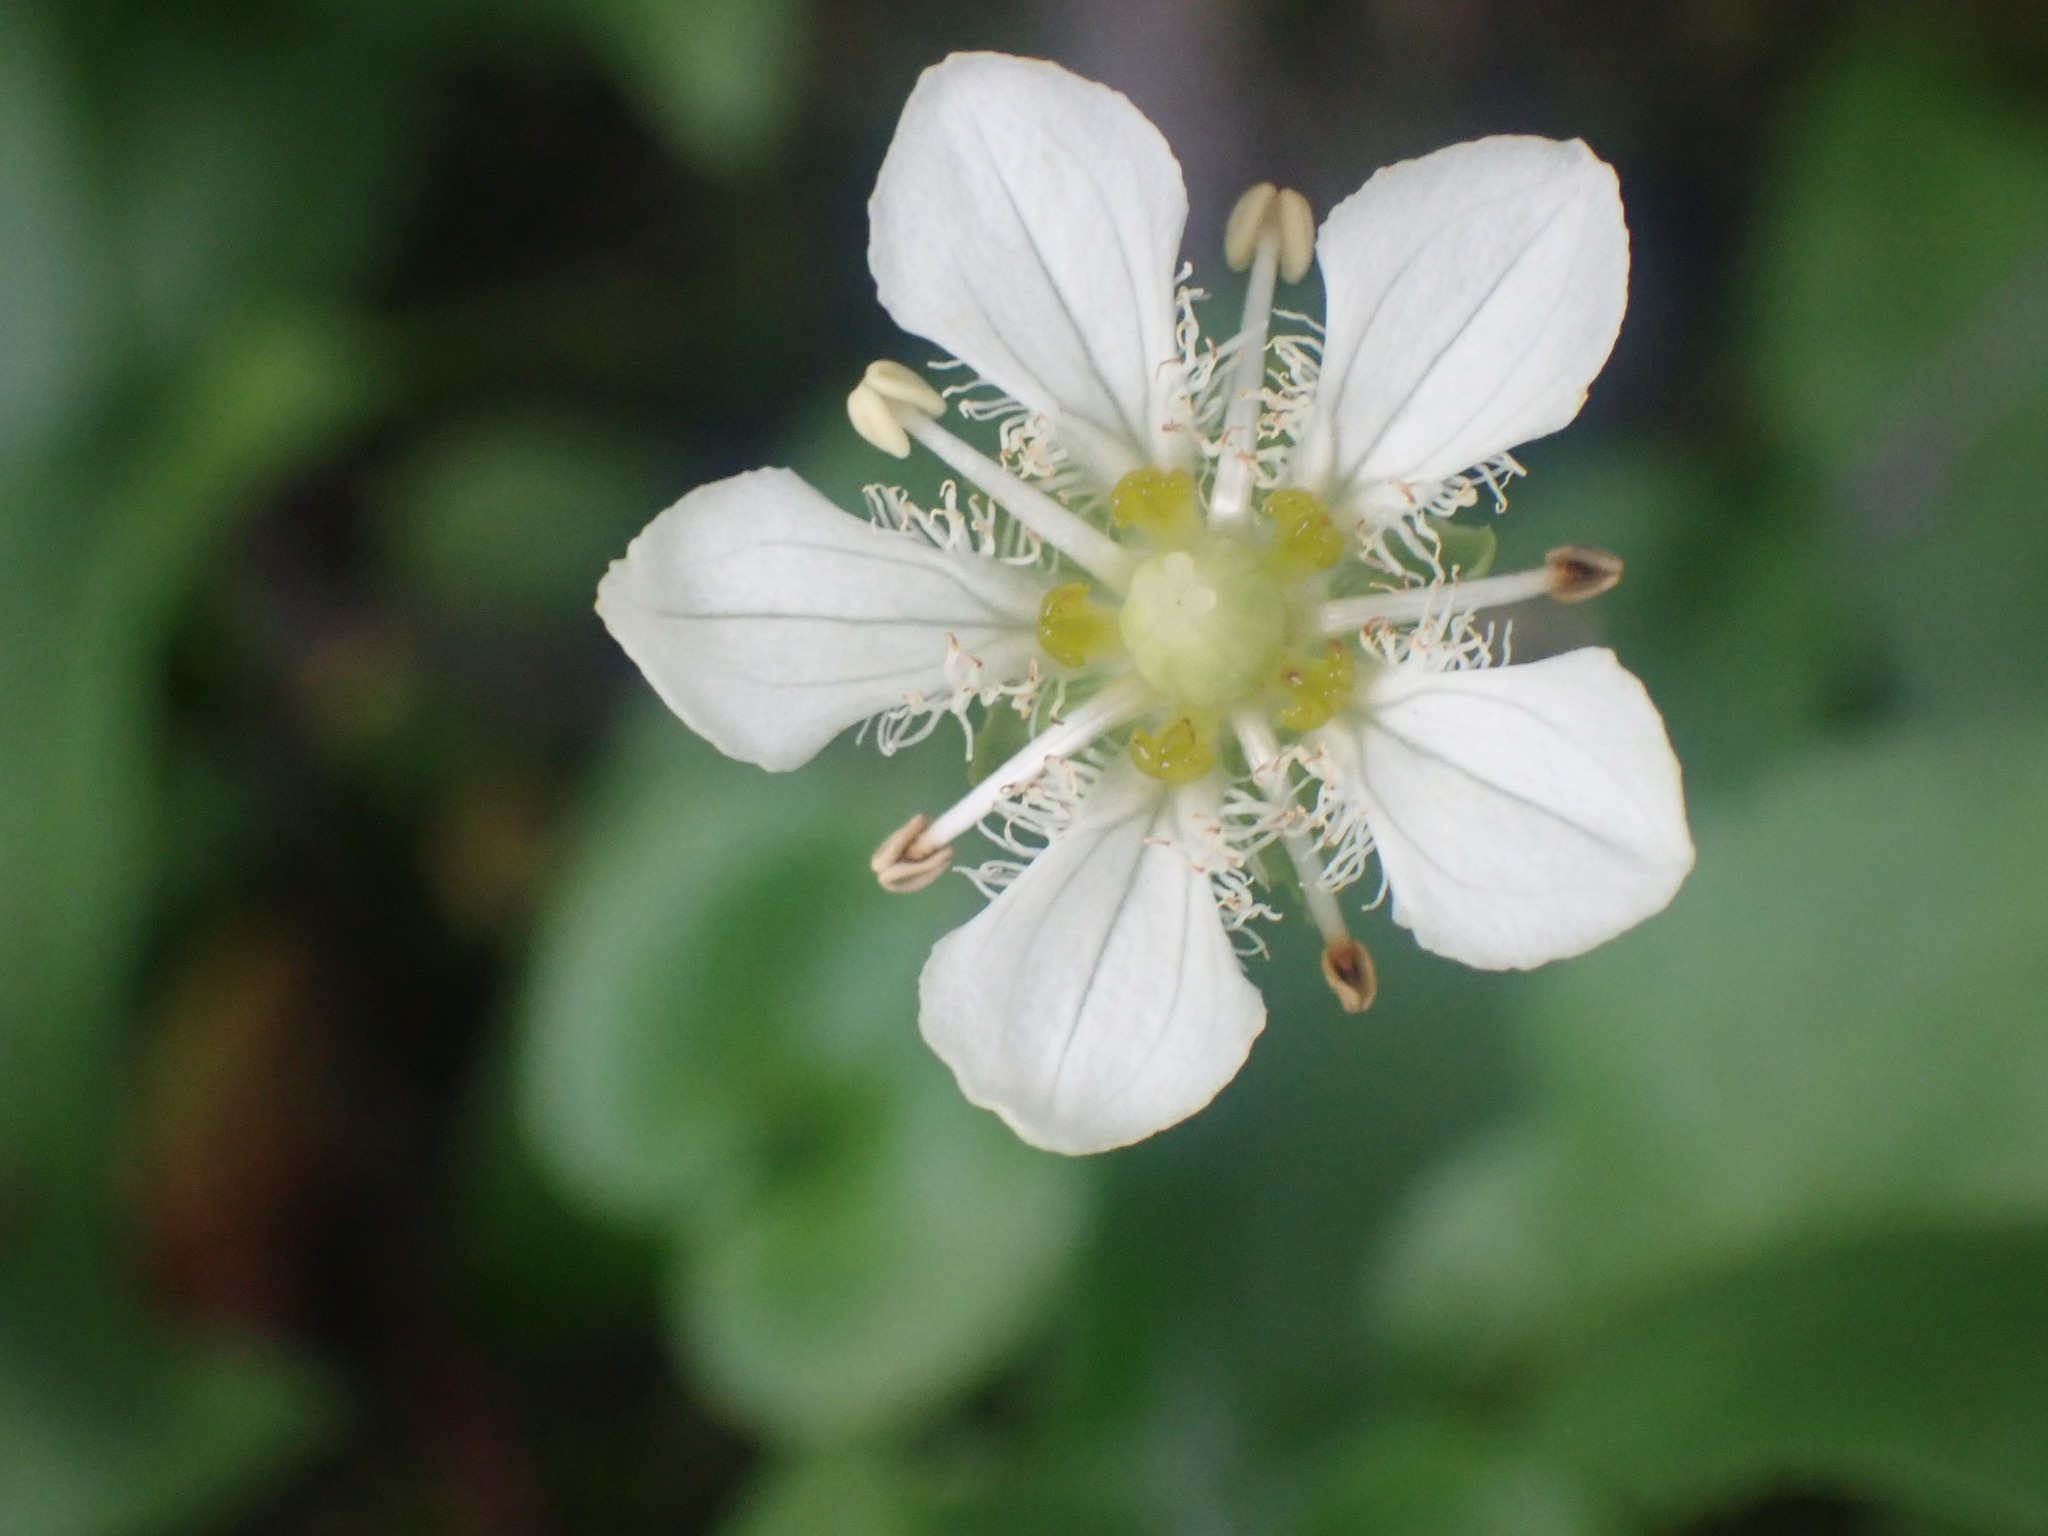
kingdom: Plantae
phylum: Tracheophyta
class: Magnoliopsida
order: Celastrales
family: Parnassiaceae
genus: Parnassia
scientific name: Parnassia fimbriata
